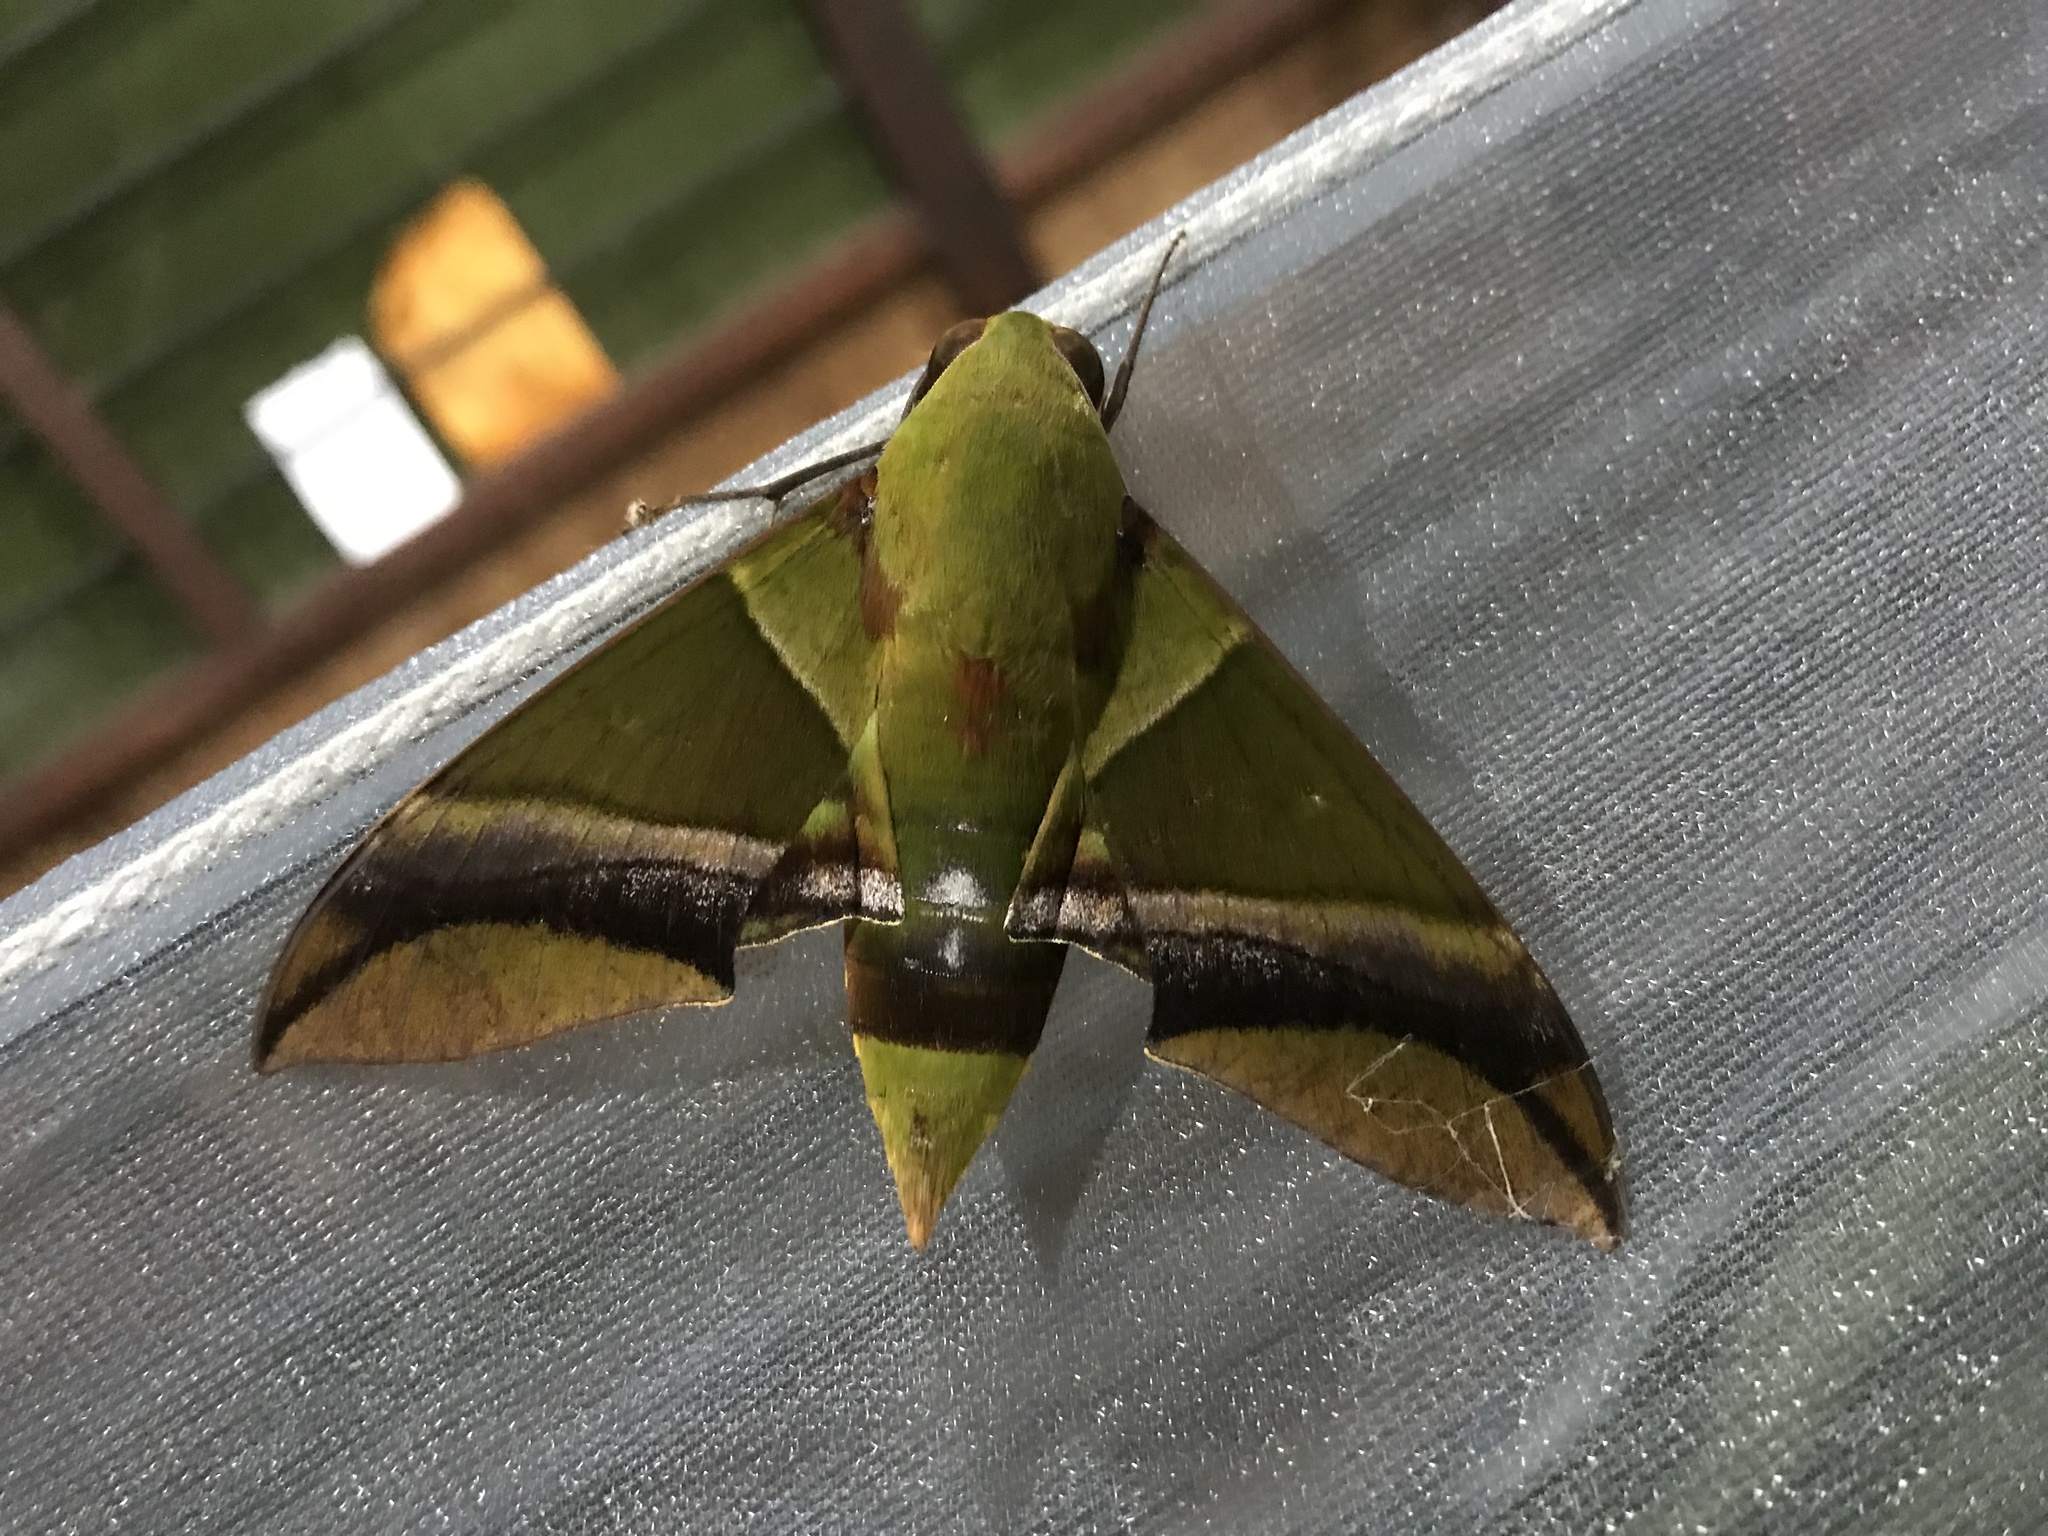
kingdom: Animalia
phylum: Arthropoda
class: Insecta
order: Lepidoptera
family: Sphingidae
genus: Oryba
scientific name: Oryba kadeni
